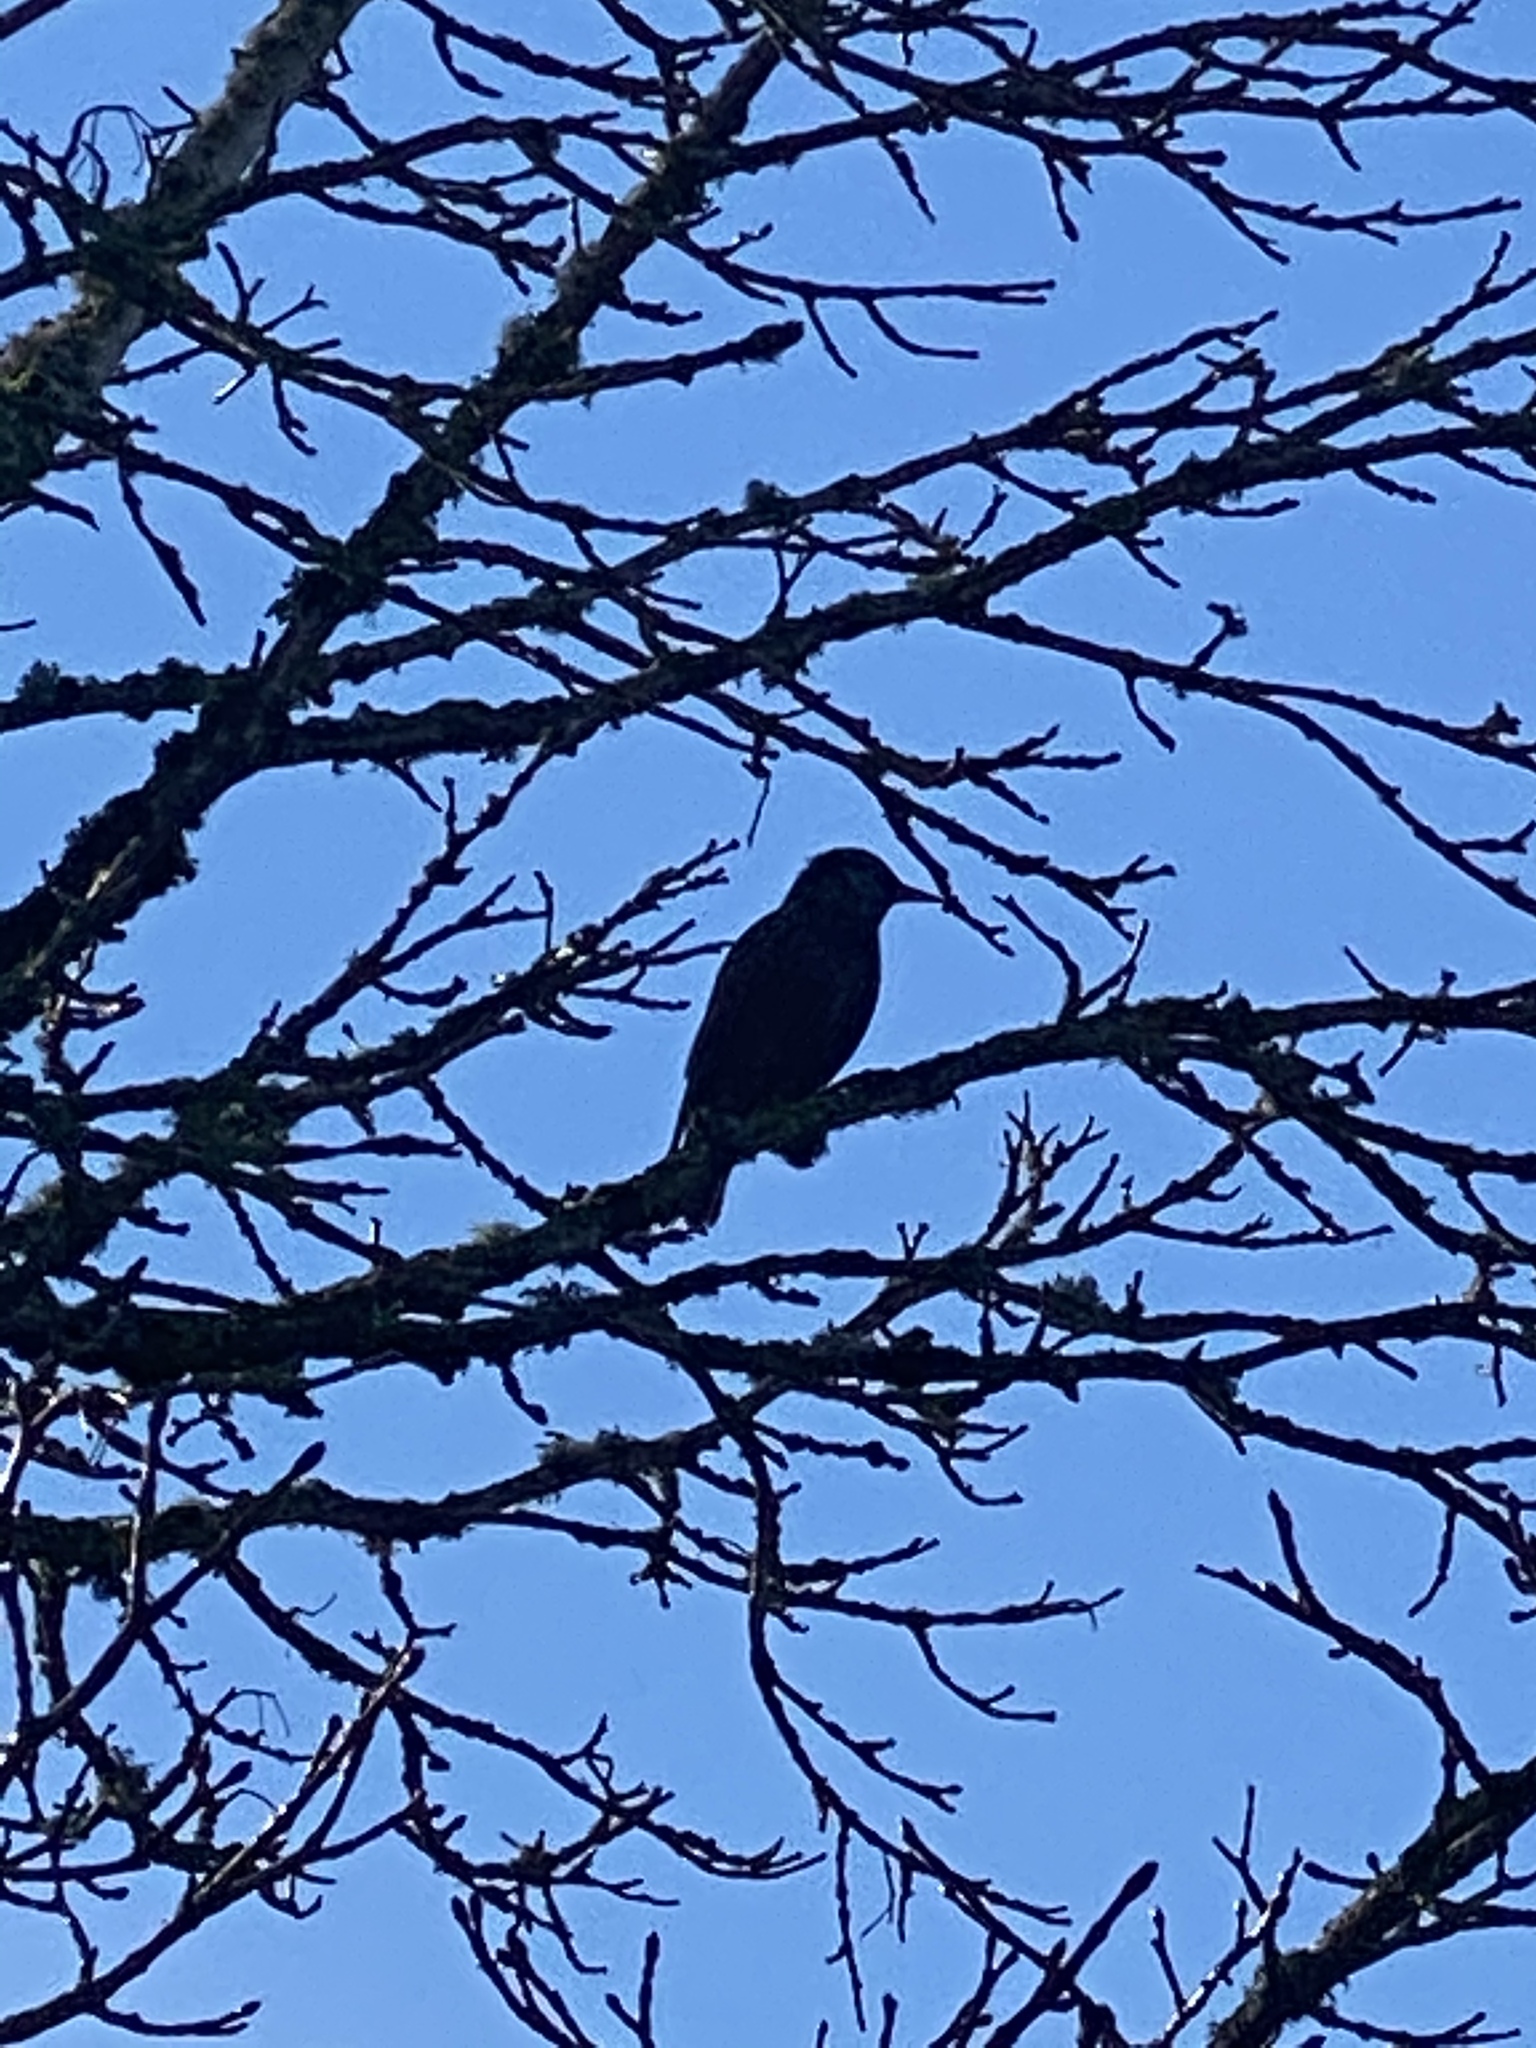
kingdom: Animalia
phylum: Chordata
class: Aves
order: Passeriformes
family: Sturnidae
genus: Sturnus
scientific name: Sturnus vulgaris
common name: Common starling
